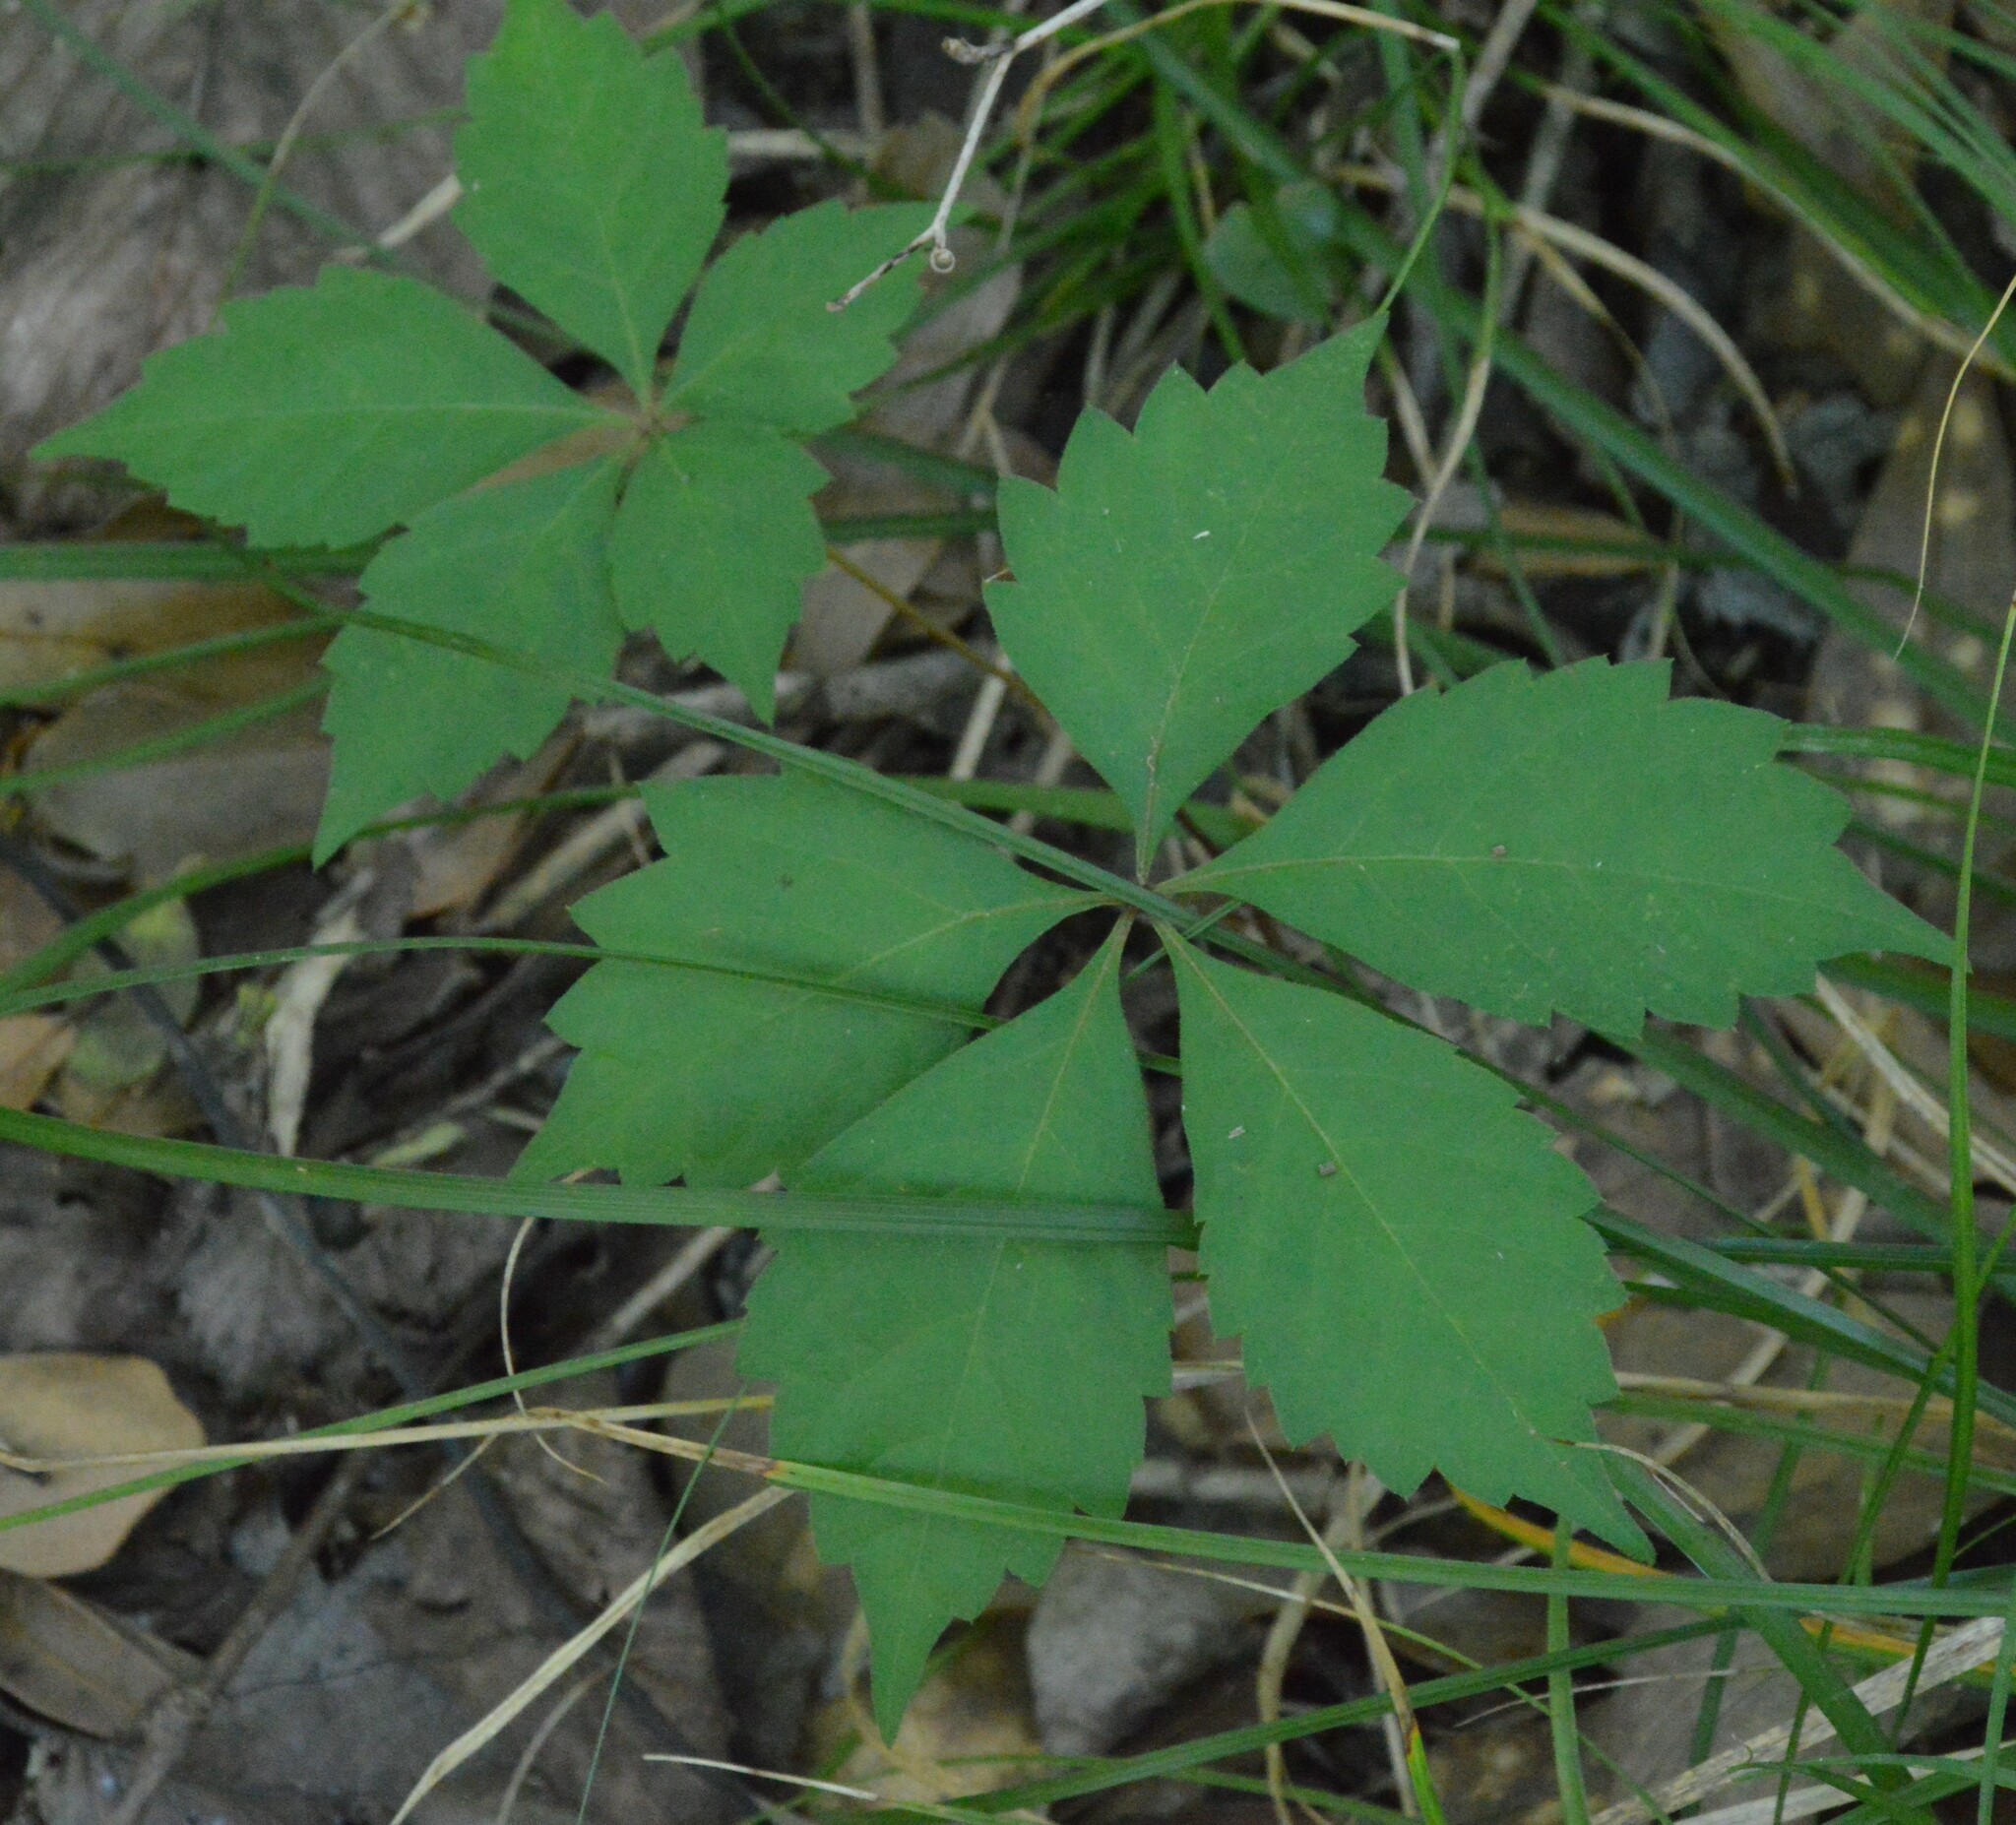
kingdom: Plantae
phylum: Tracheophyta
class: Magnoliopsida
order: Vitales
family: Vitaceae
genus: Parthenocissus
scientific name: Parthenocissus quinquefolia
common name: Virginia-creeper
